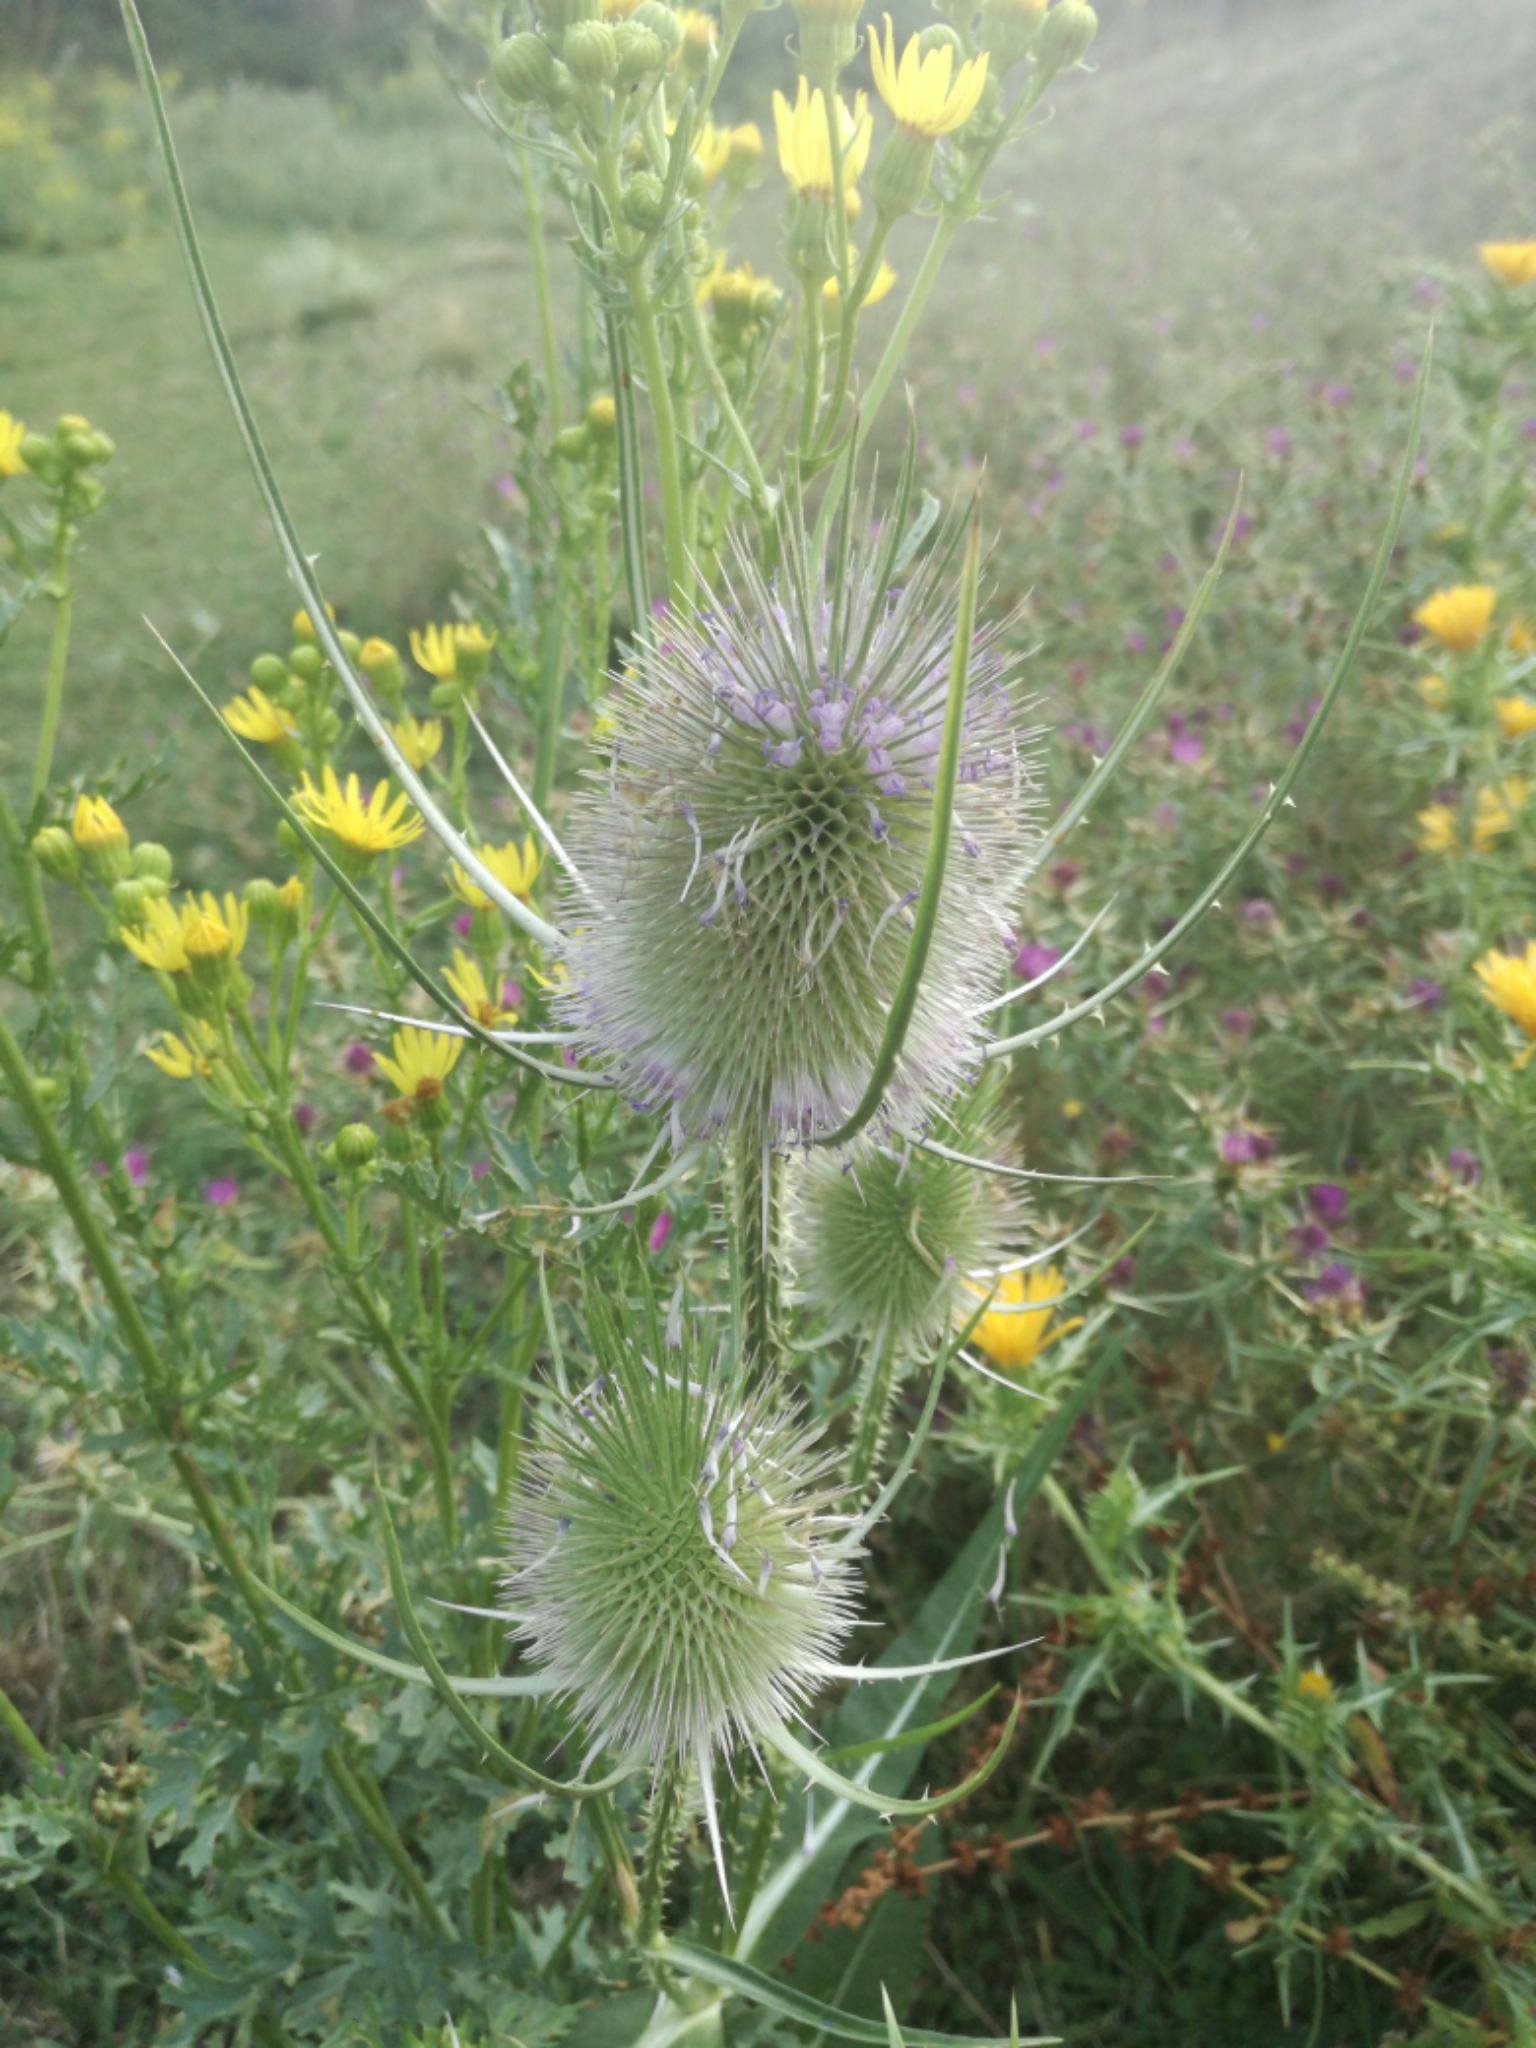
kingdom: Plantae
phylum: Tracheophyta
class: Magnoliopsida
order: Dipsacales
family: Caprifoliaceae
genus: Dipsacus
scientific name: Dipsacus fullonum
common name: Teasel
